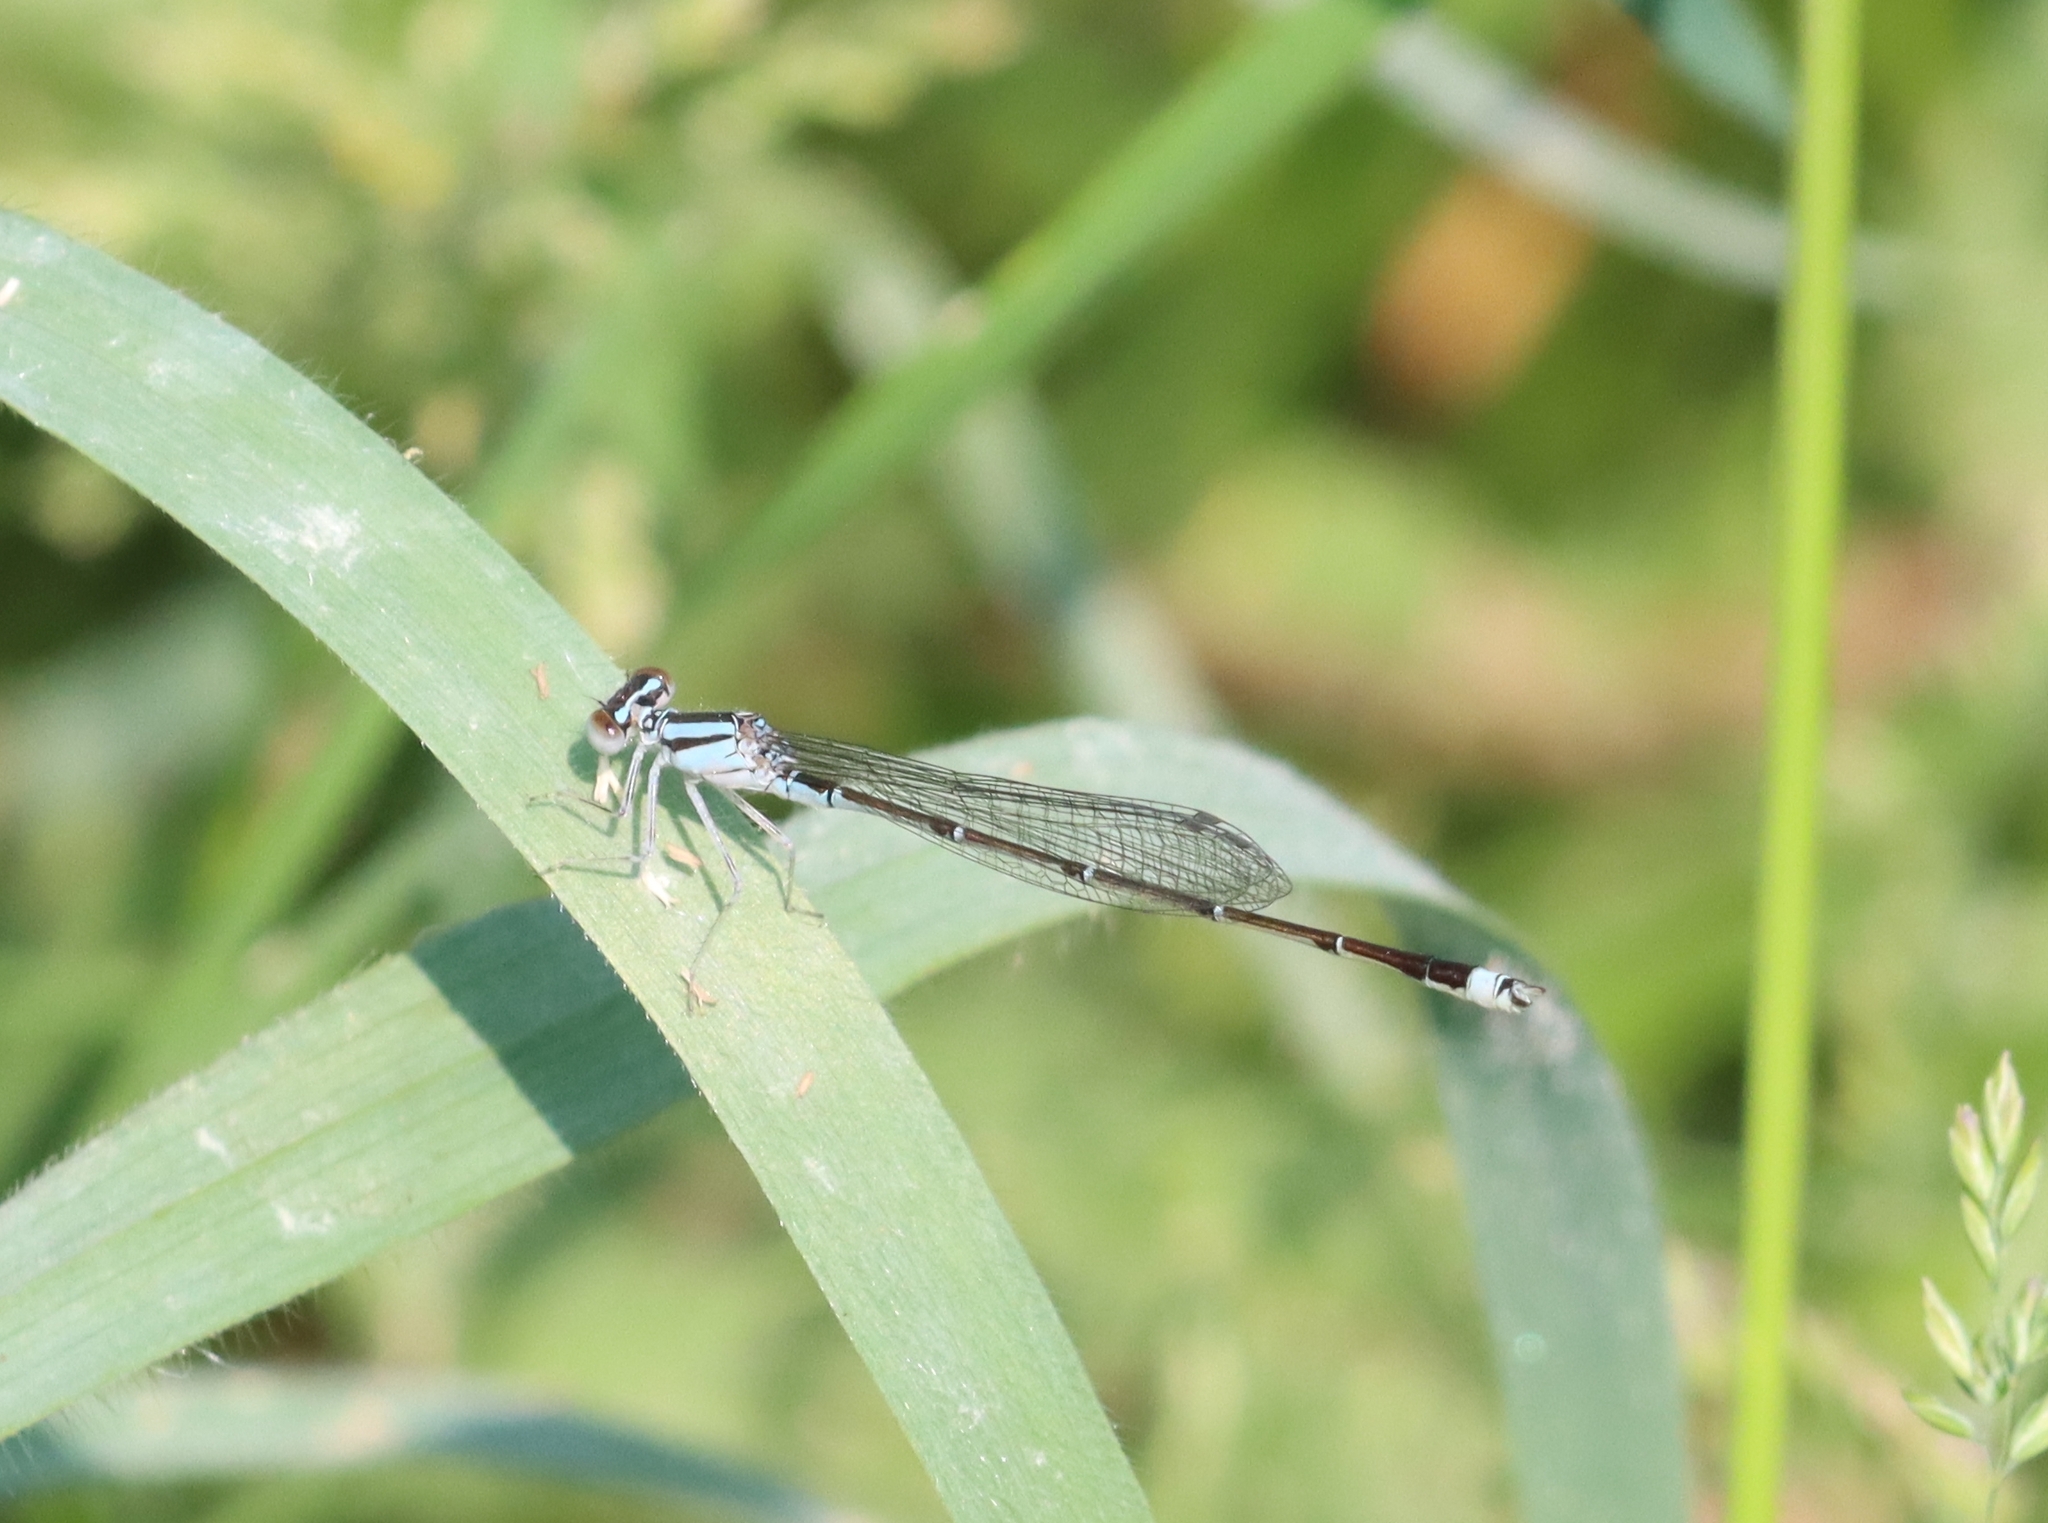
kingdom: Animalia
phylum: Arthropoda
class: Insecta
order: Odonata
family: Coenagrionidae
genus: Enallagma
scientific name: Enallagma signatum
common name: Orange bluet
